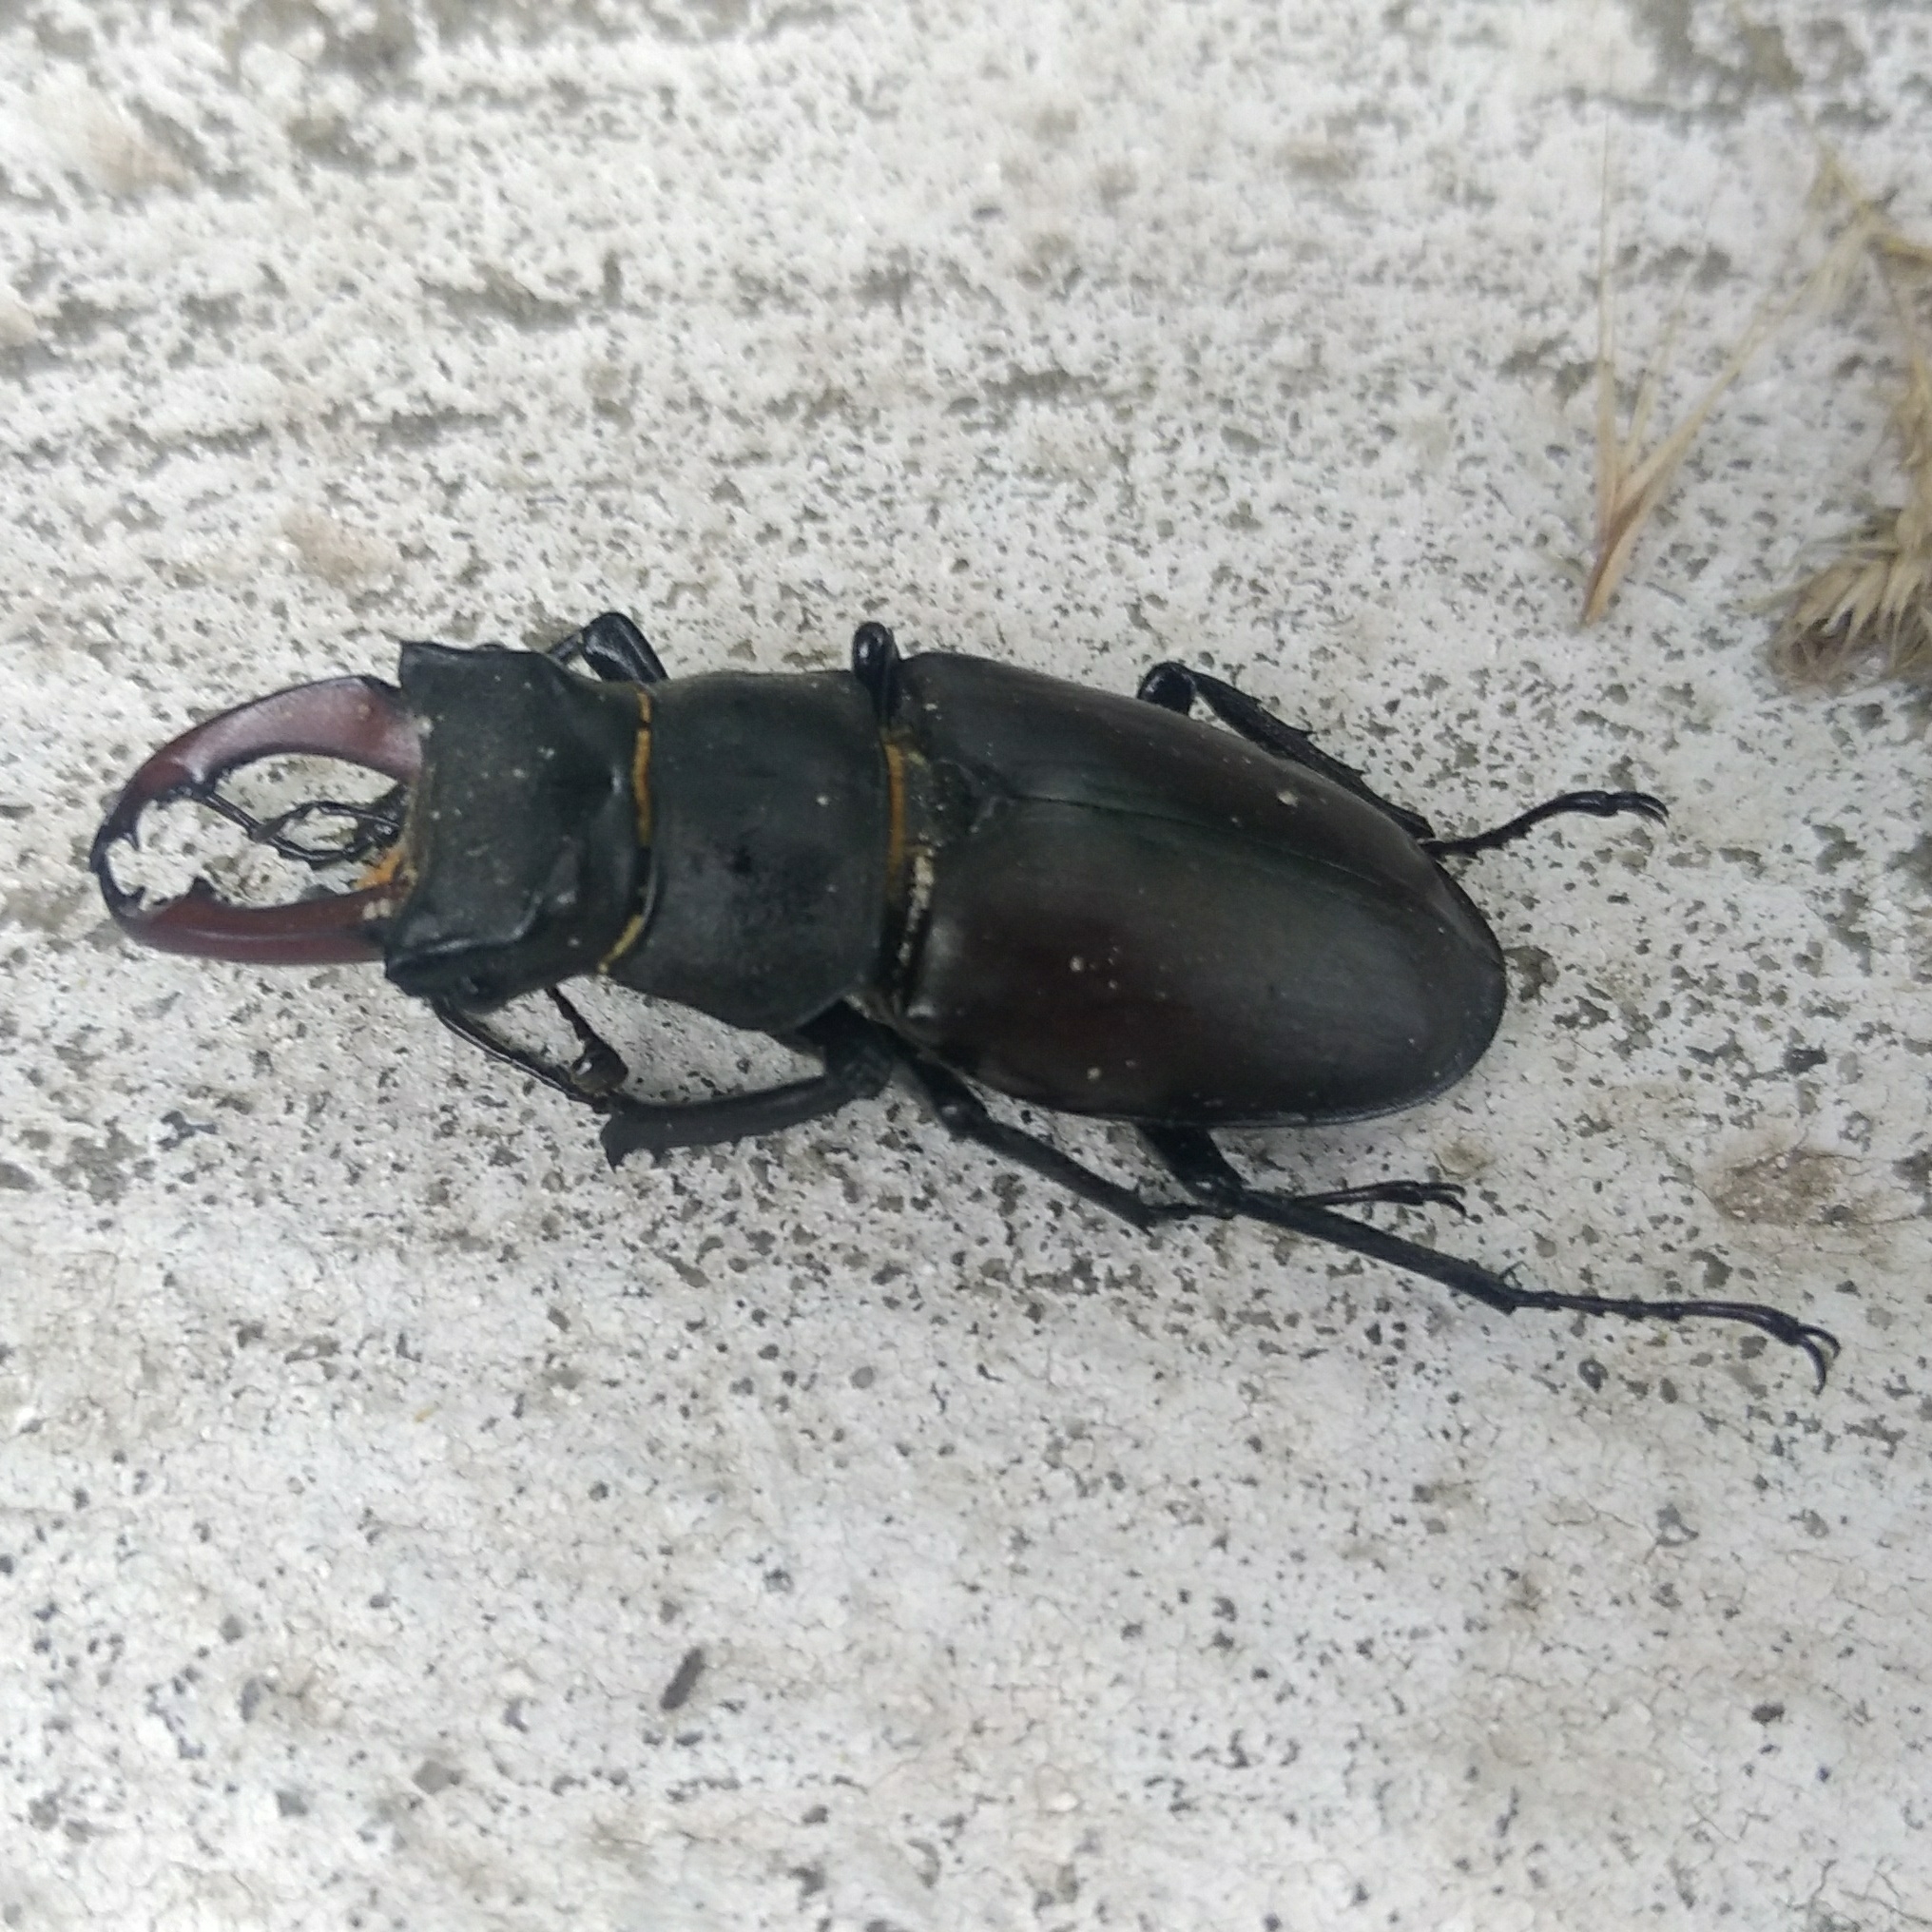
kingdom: Animalia
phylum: Arthropoda
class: Insecta
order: Coleoptera
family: Lucanidae
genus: Lucanus
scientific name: Lucanus cervus
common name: Stag beetle
